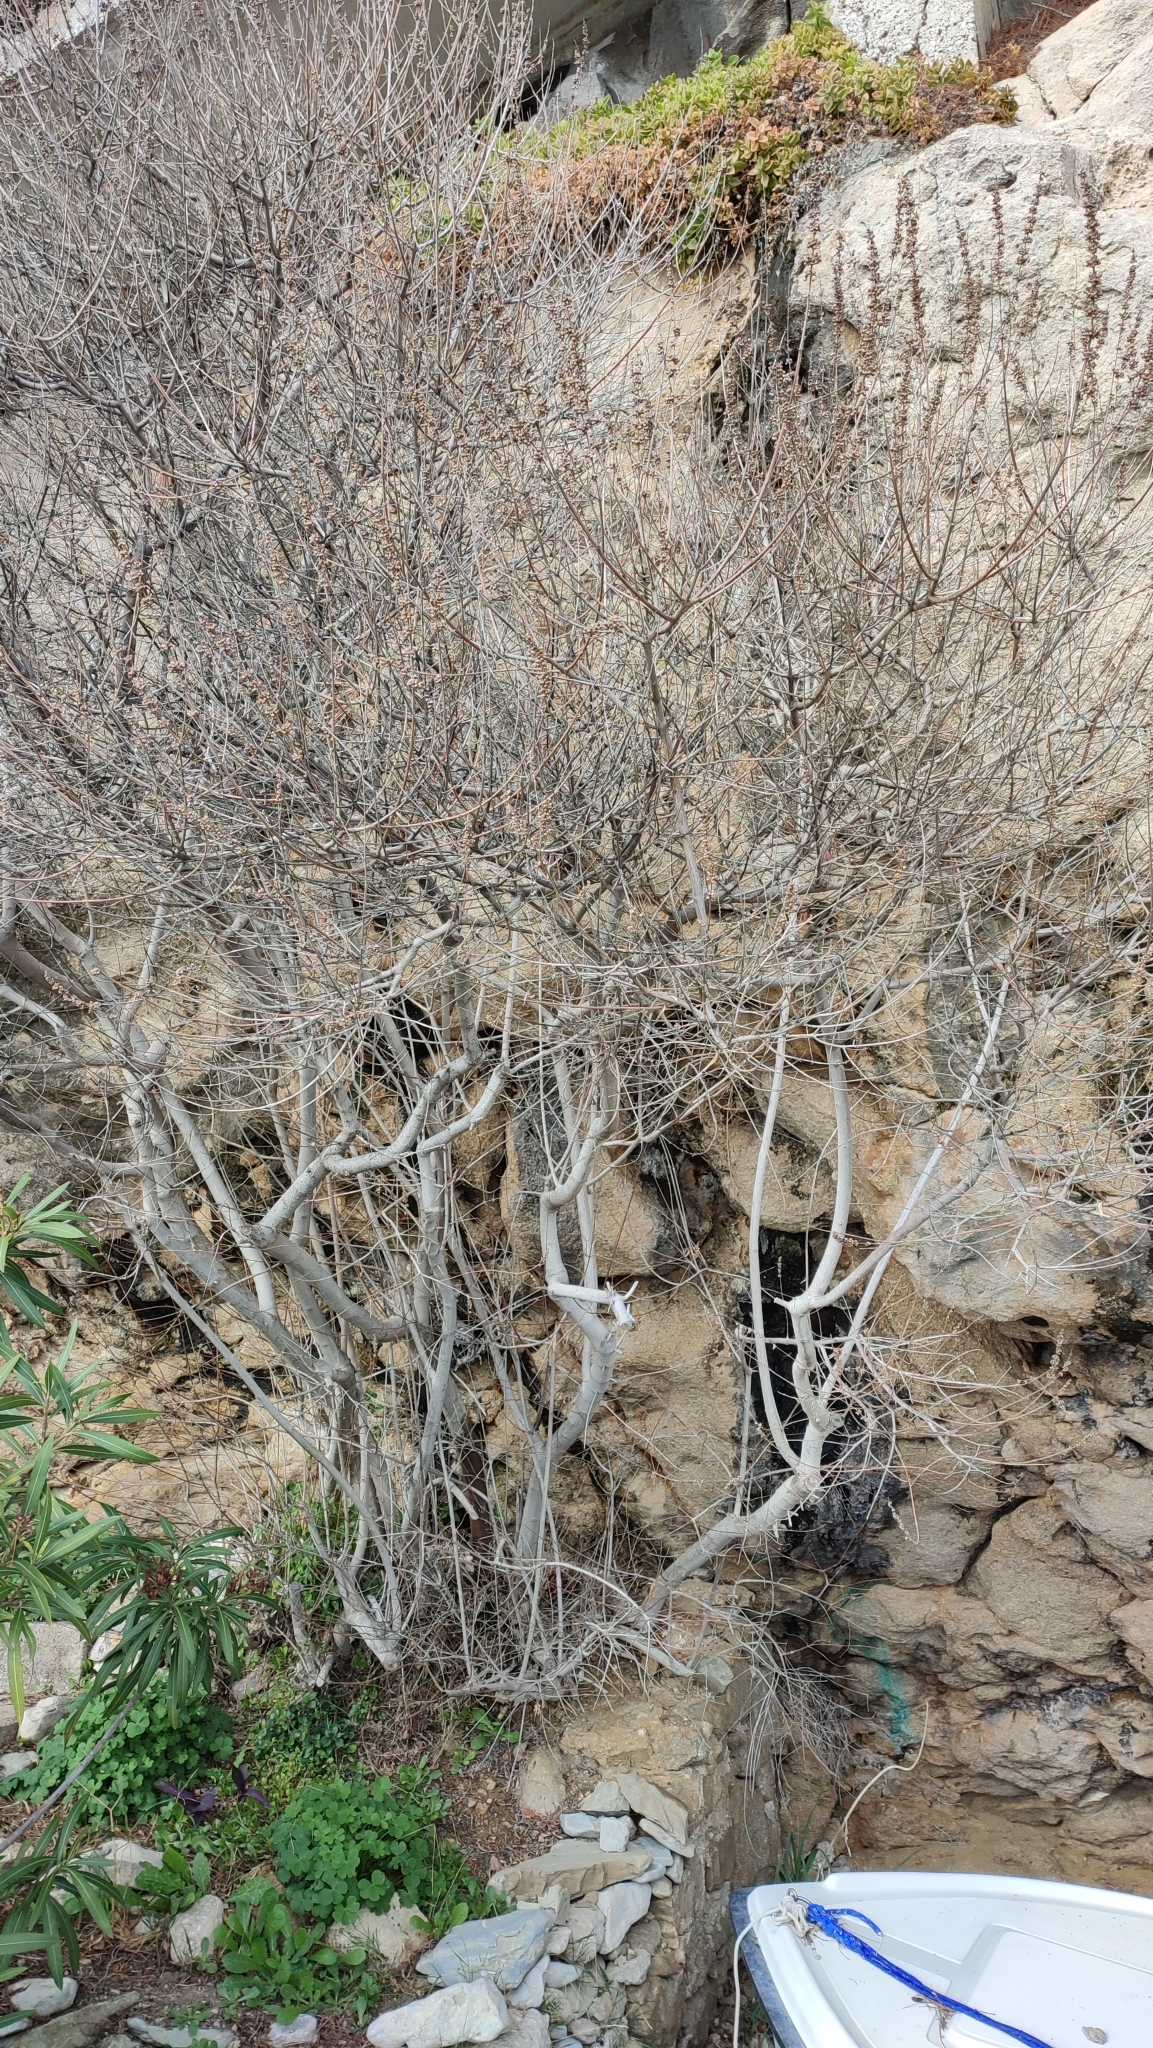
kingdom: Plantae
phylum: Tracheophyta
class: Magnoliopsida
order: Lamiales
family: Lamiaceae
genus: Vitex
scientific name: Vitex agnus-castus
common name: Chasteberry
